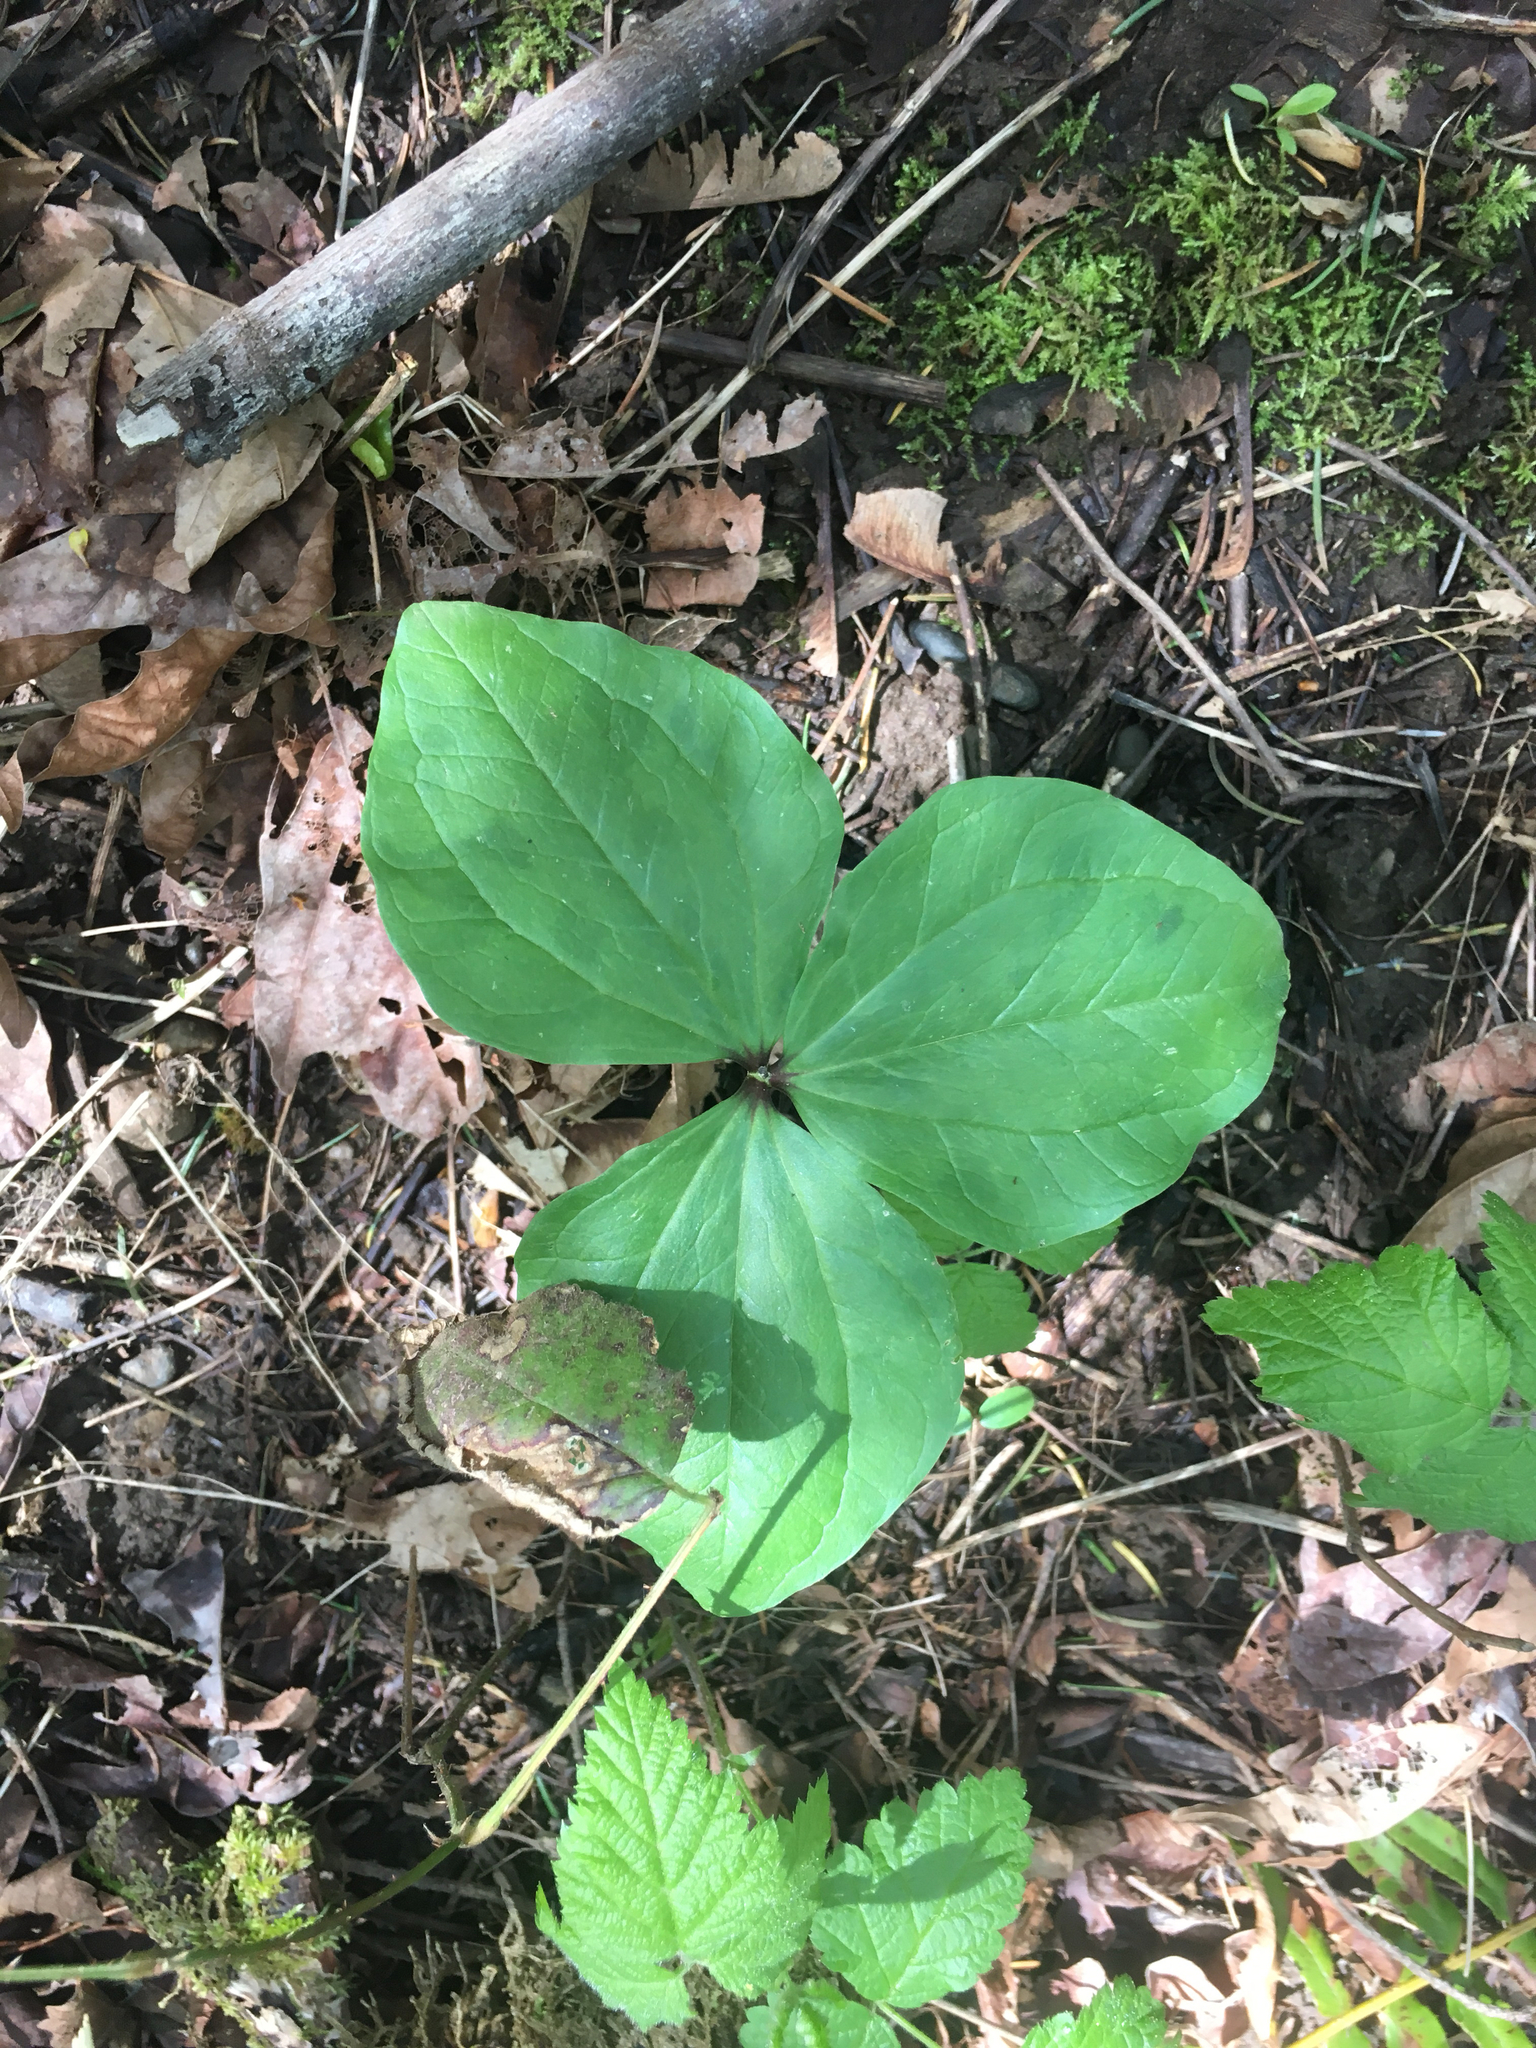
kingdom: Plantae
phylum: Tracheophyta
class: Liliopsida
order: Liliales
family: Melanthiaceae
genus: Trillium
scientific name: Trillium albidum
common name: Freeman's trillium
